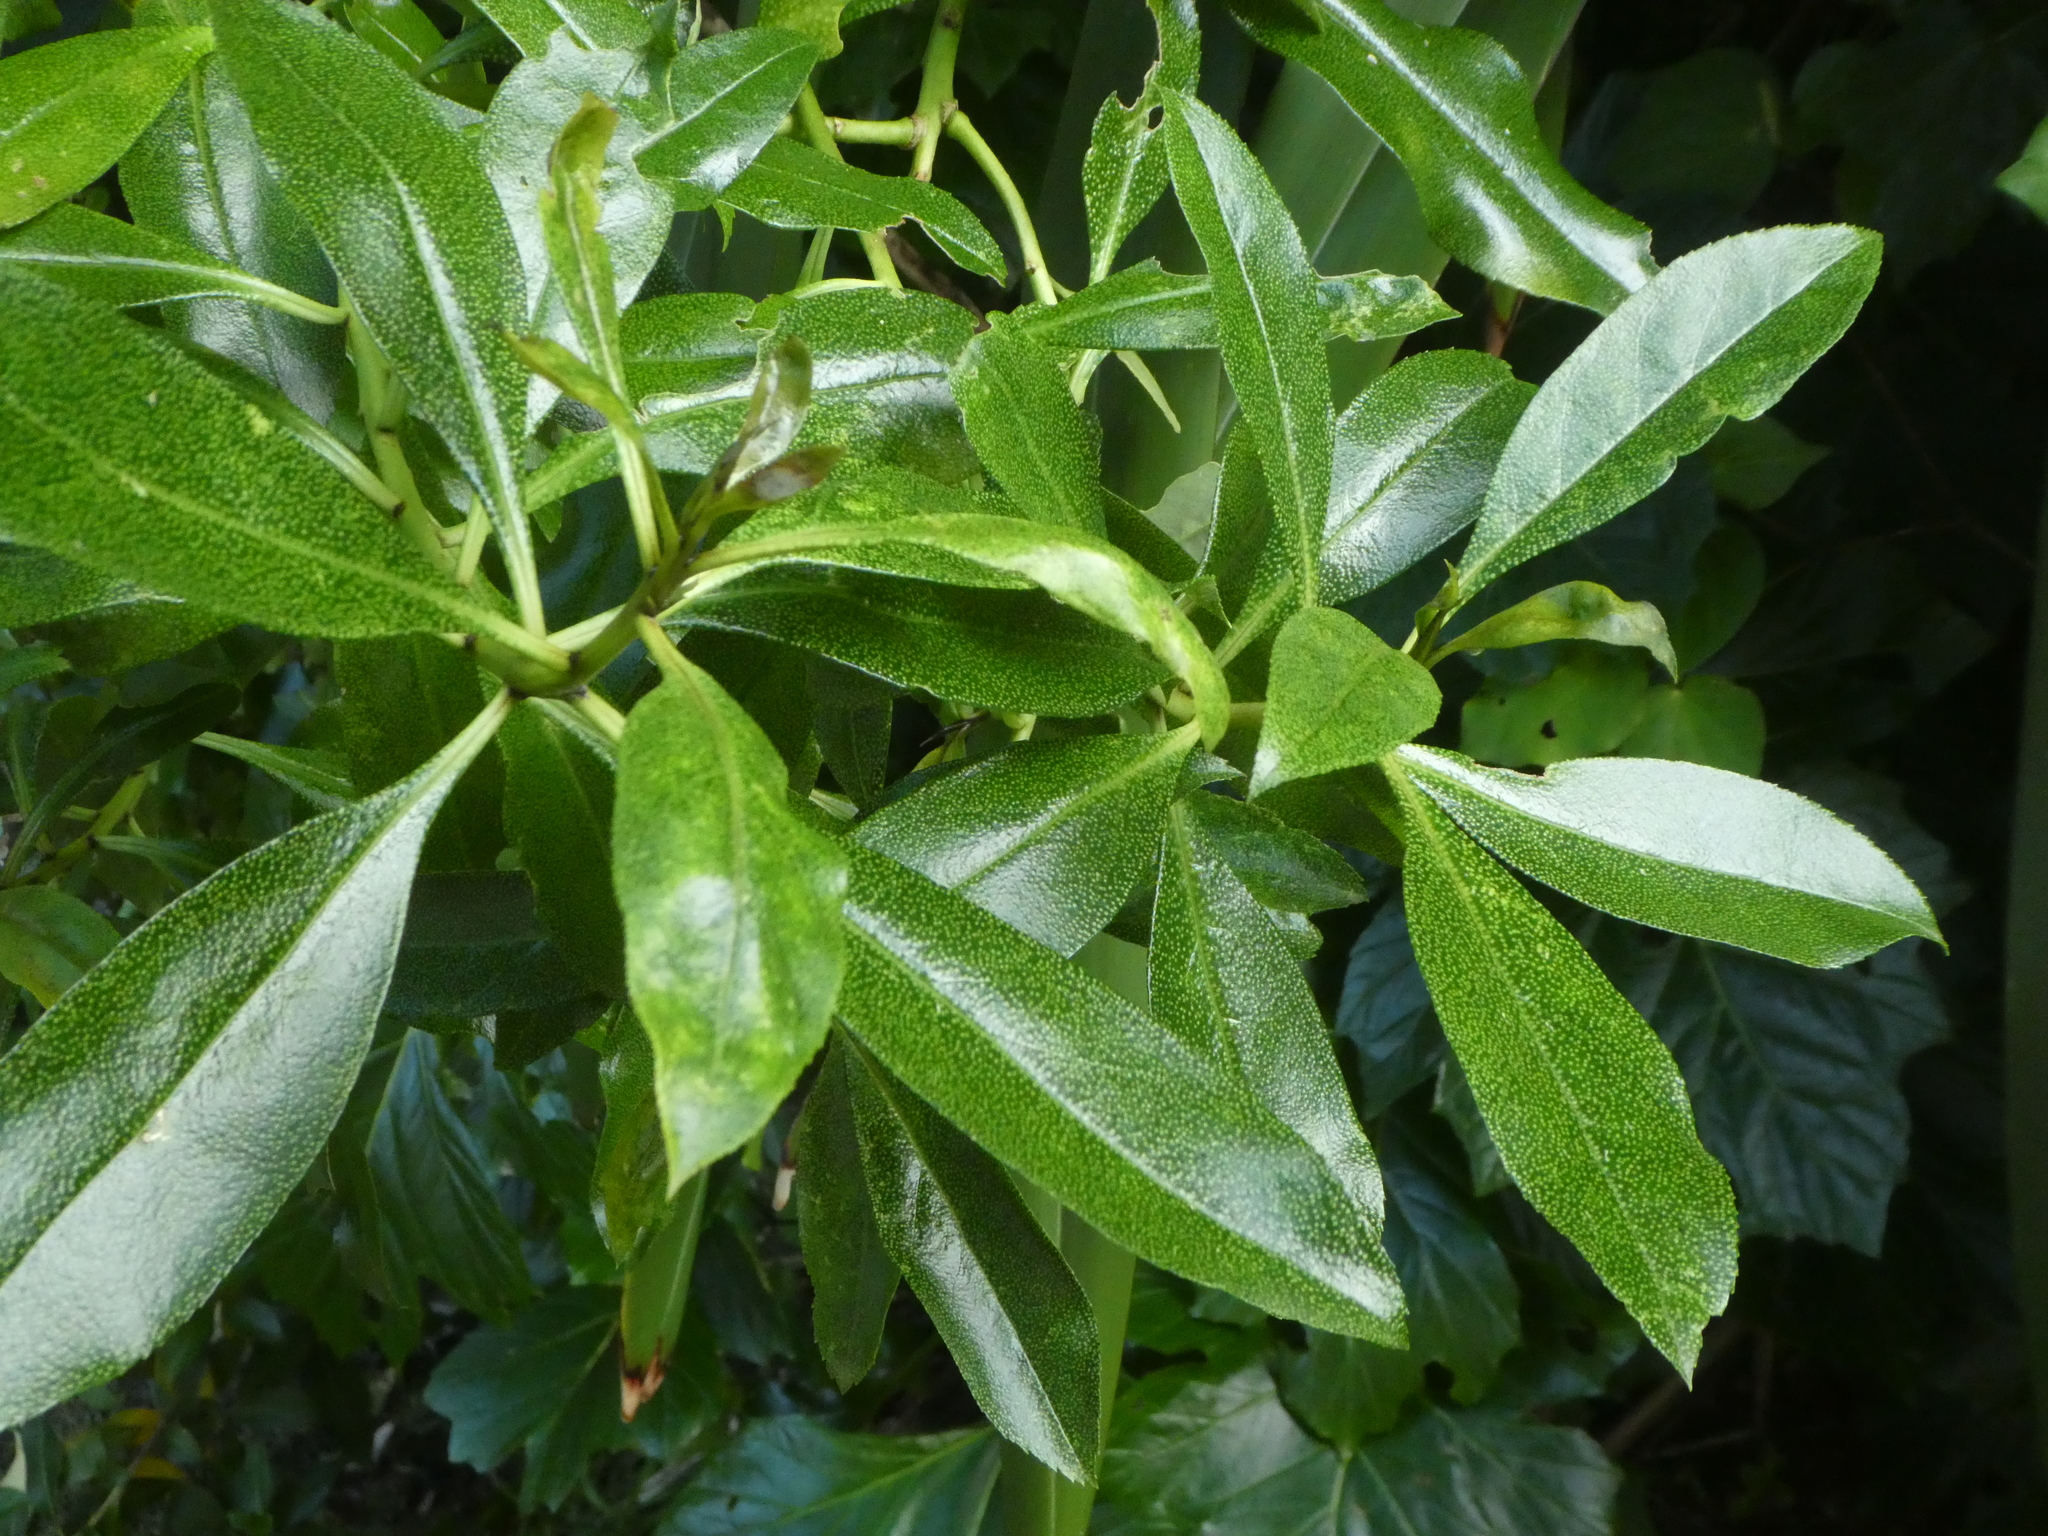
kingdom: Plantae
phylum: Tracheophyta
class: Magnoliopsida
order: Lamiales
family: Scrophulariaceae
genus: Myoporum
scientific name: Myoporum laetum
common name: Ngaio tree
